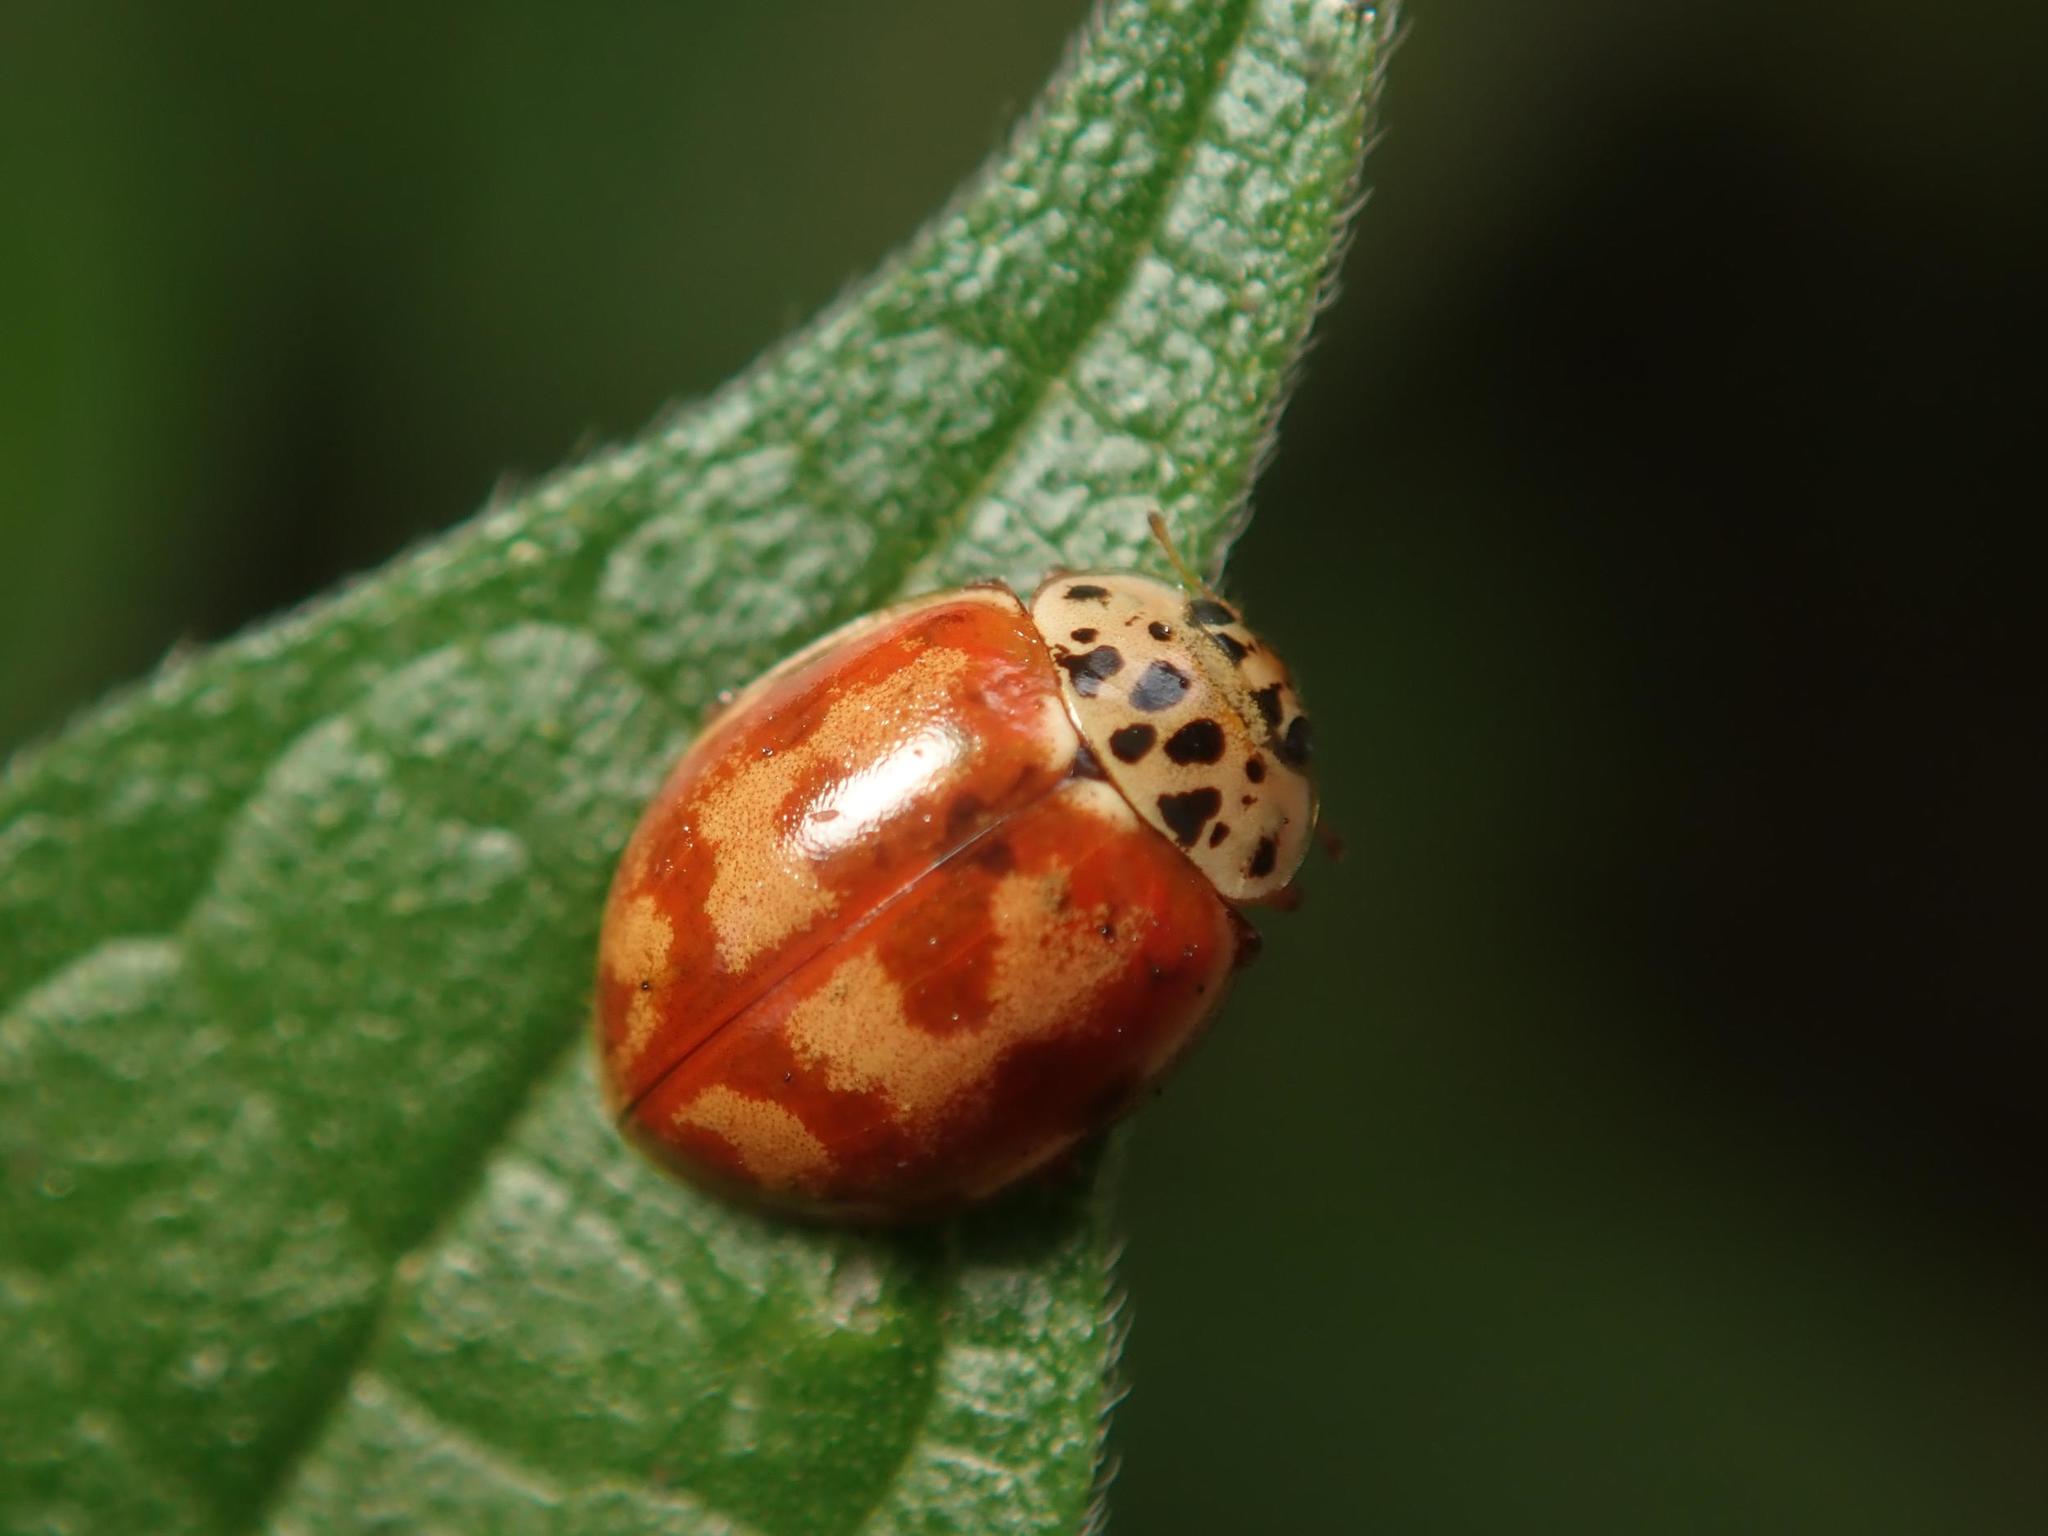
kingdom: Animalia
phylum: Arthropoda
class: Insecta
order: Coleoptera
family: Coccinellidae
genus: Harmonia
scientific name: Harmonia quadripunctata
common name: Cream-streaked ladybird
